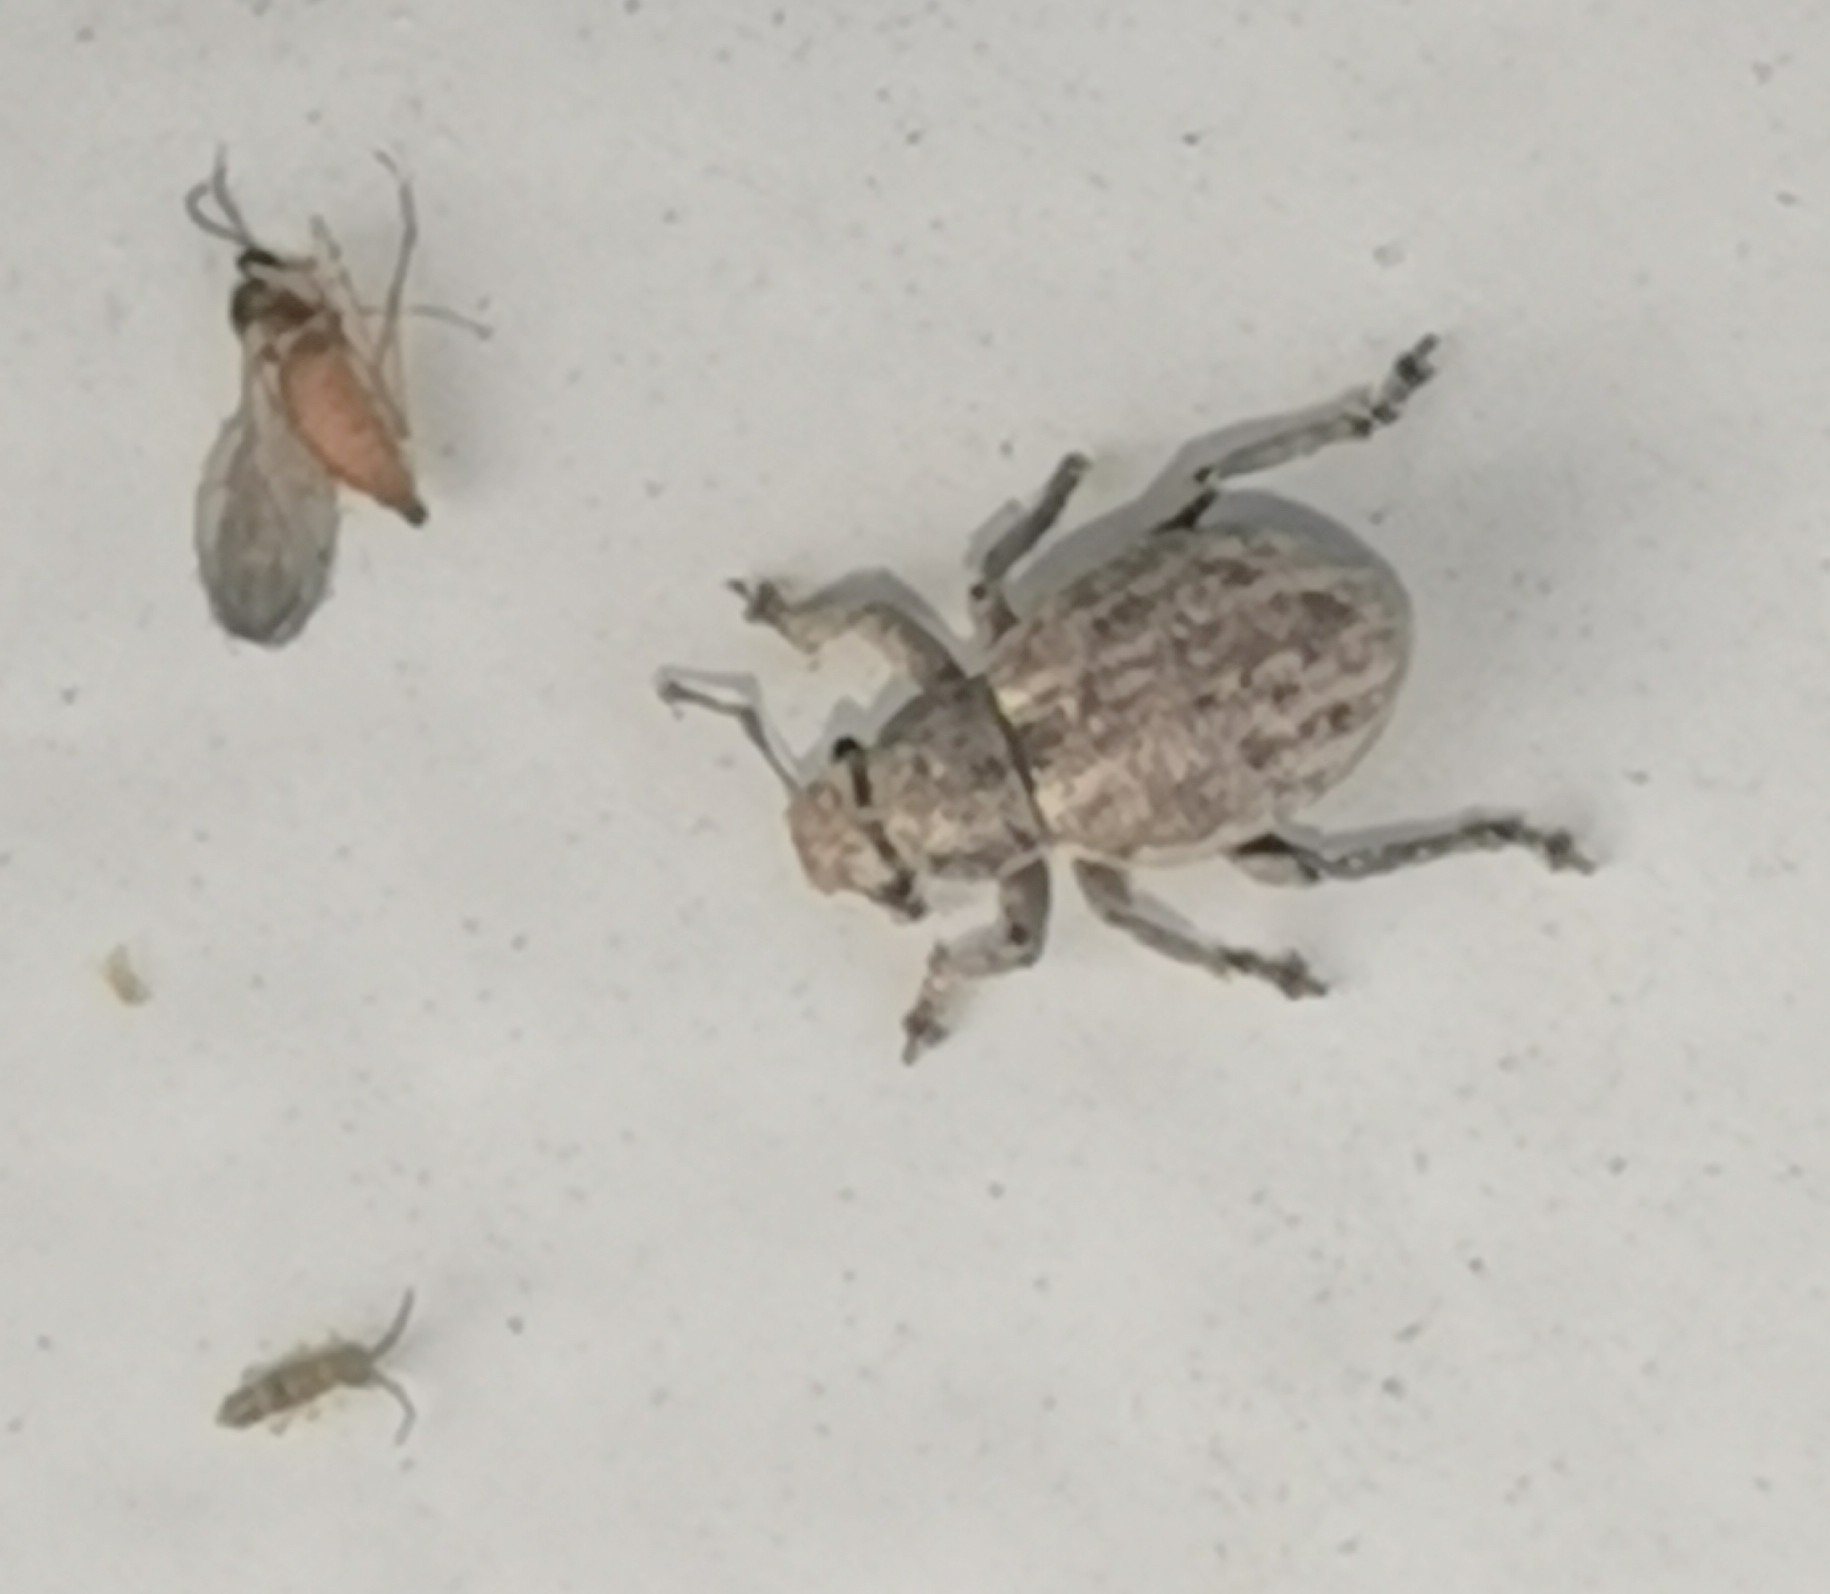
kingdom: Animalia
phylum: Arthropoda
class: Insecta
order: Coleoptera
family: Curculionidae
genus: Strophosoma
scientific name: Strophosoma capitatum
